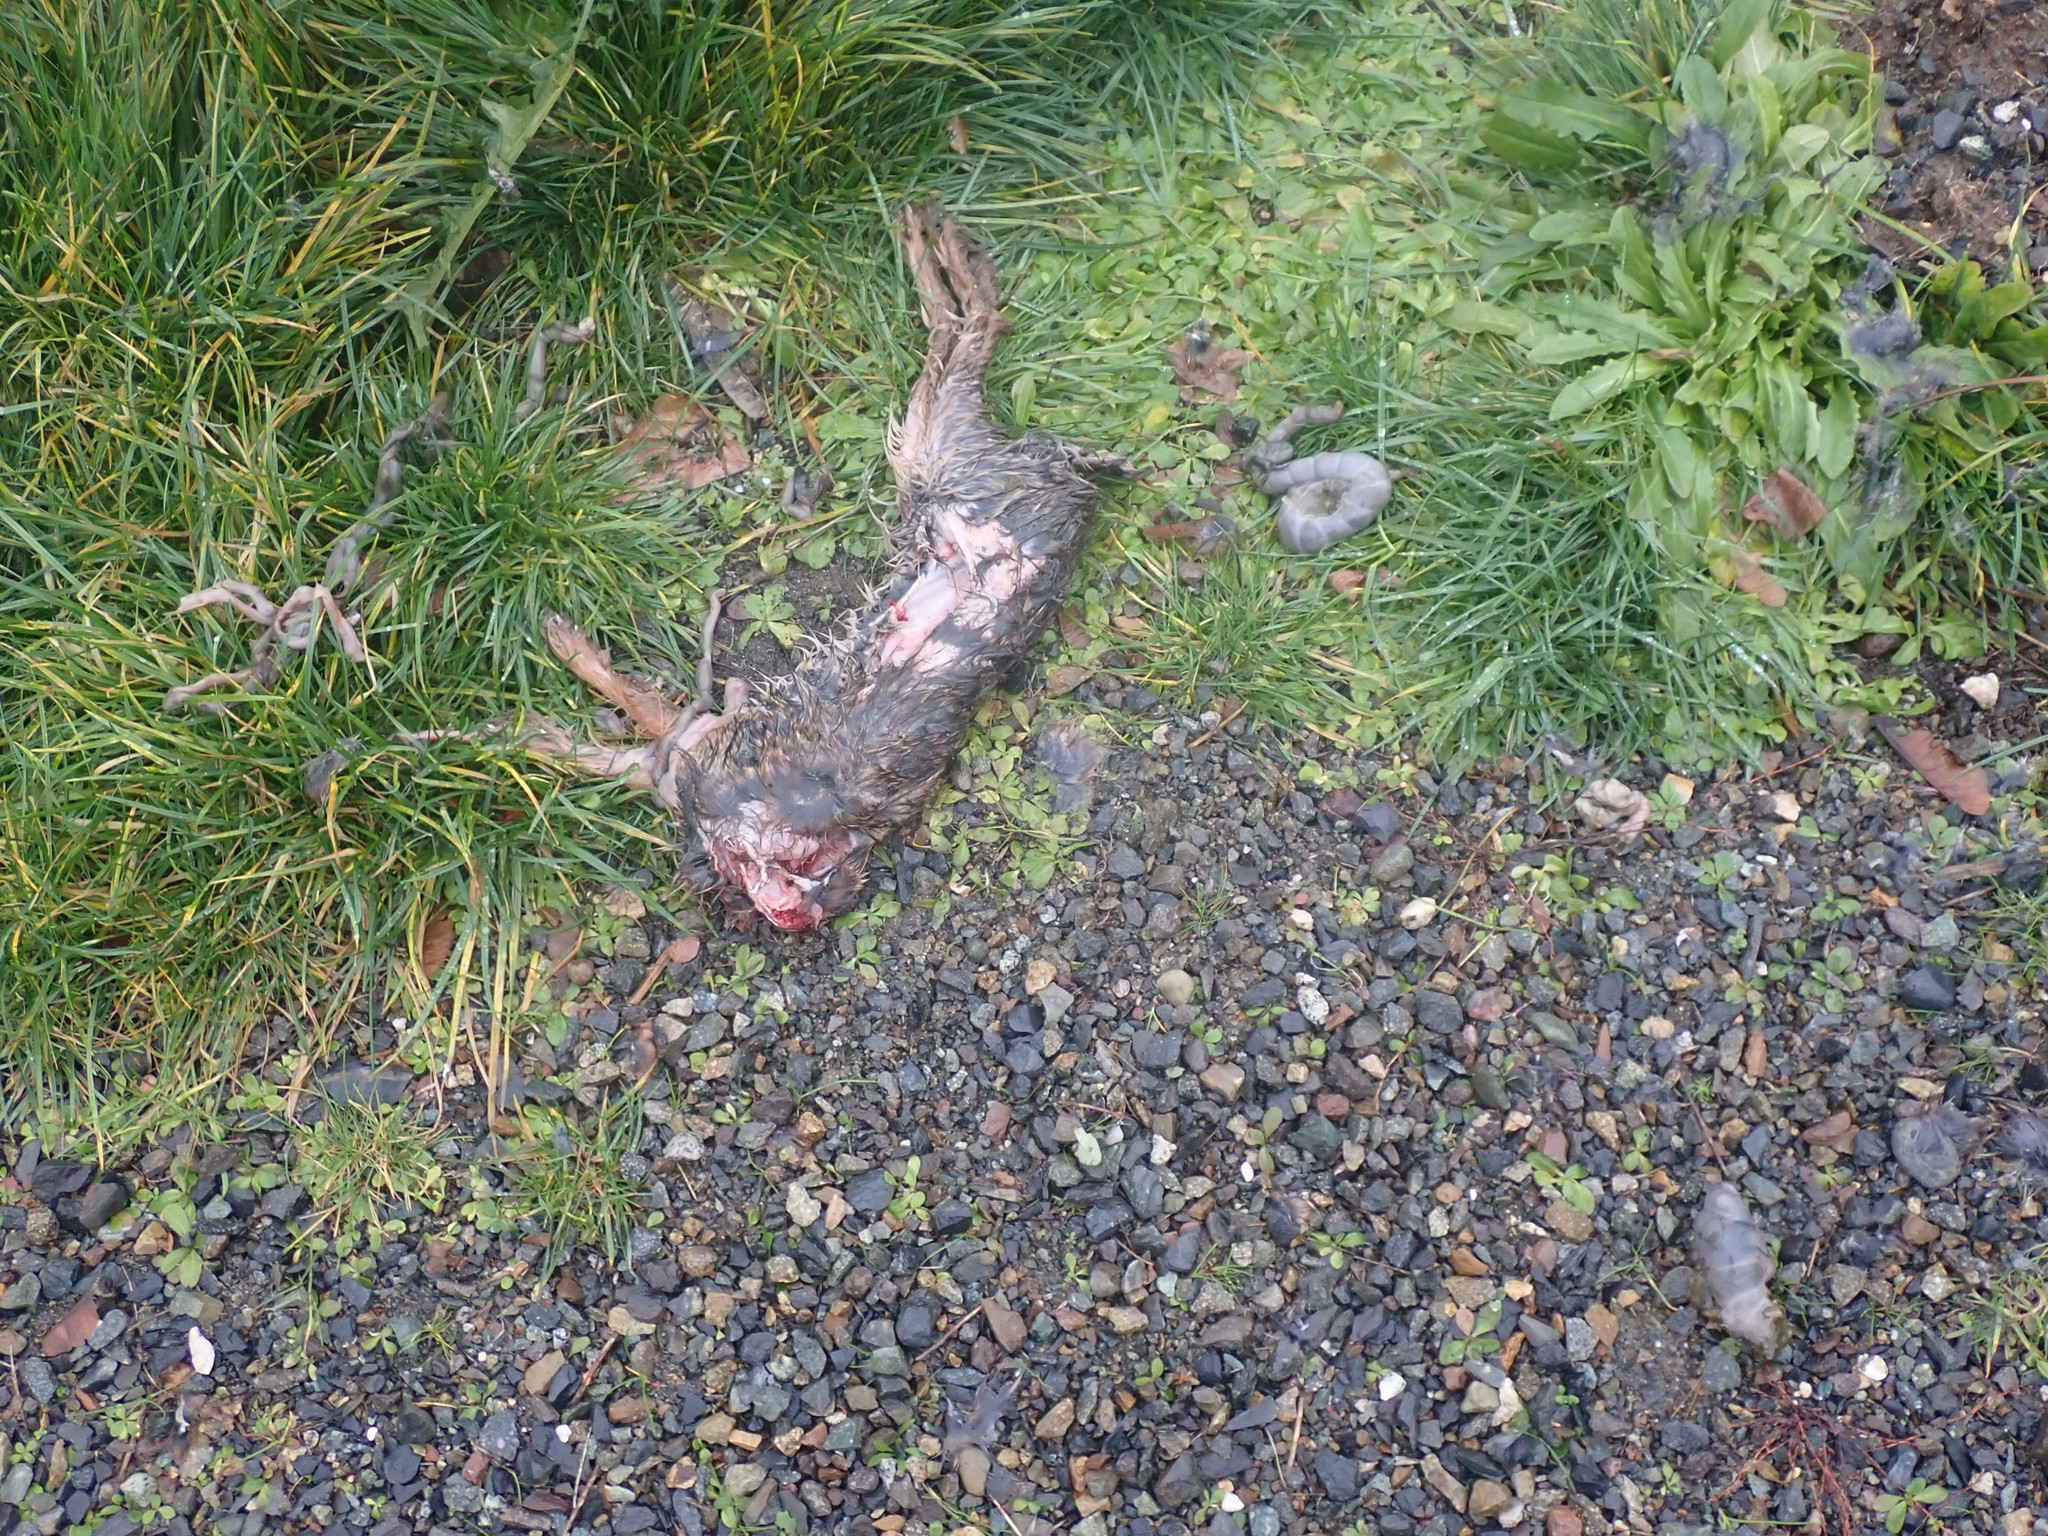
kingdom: Animalia
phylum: Chordata
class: Mammalia
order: Lagomorpha
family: Leporidae
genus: Sylvilagus
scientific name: Sylvilagus floridanus
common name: Eastern cottontail
